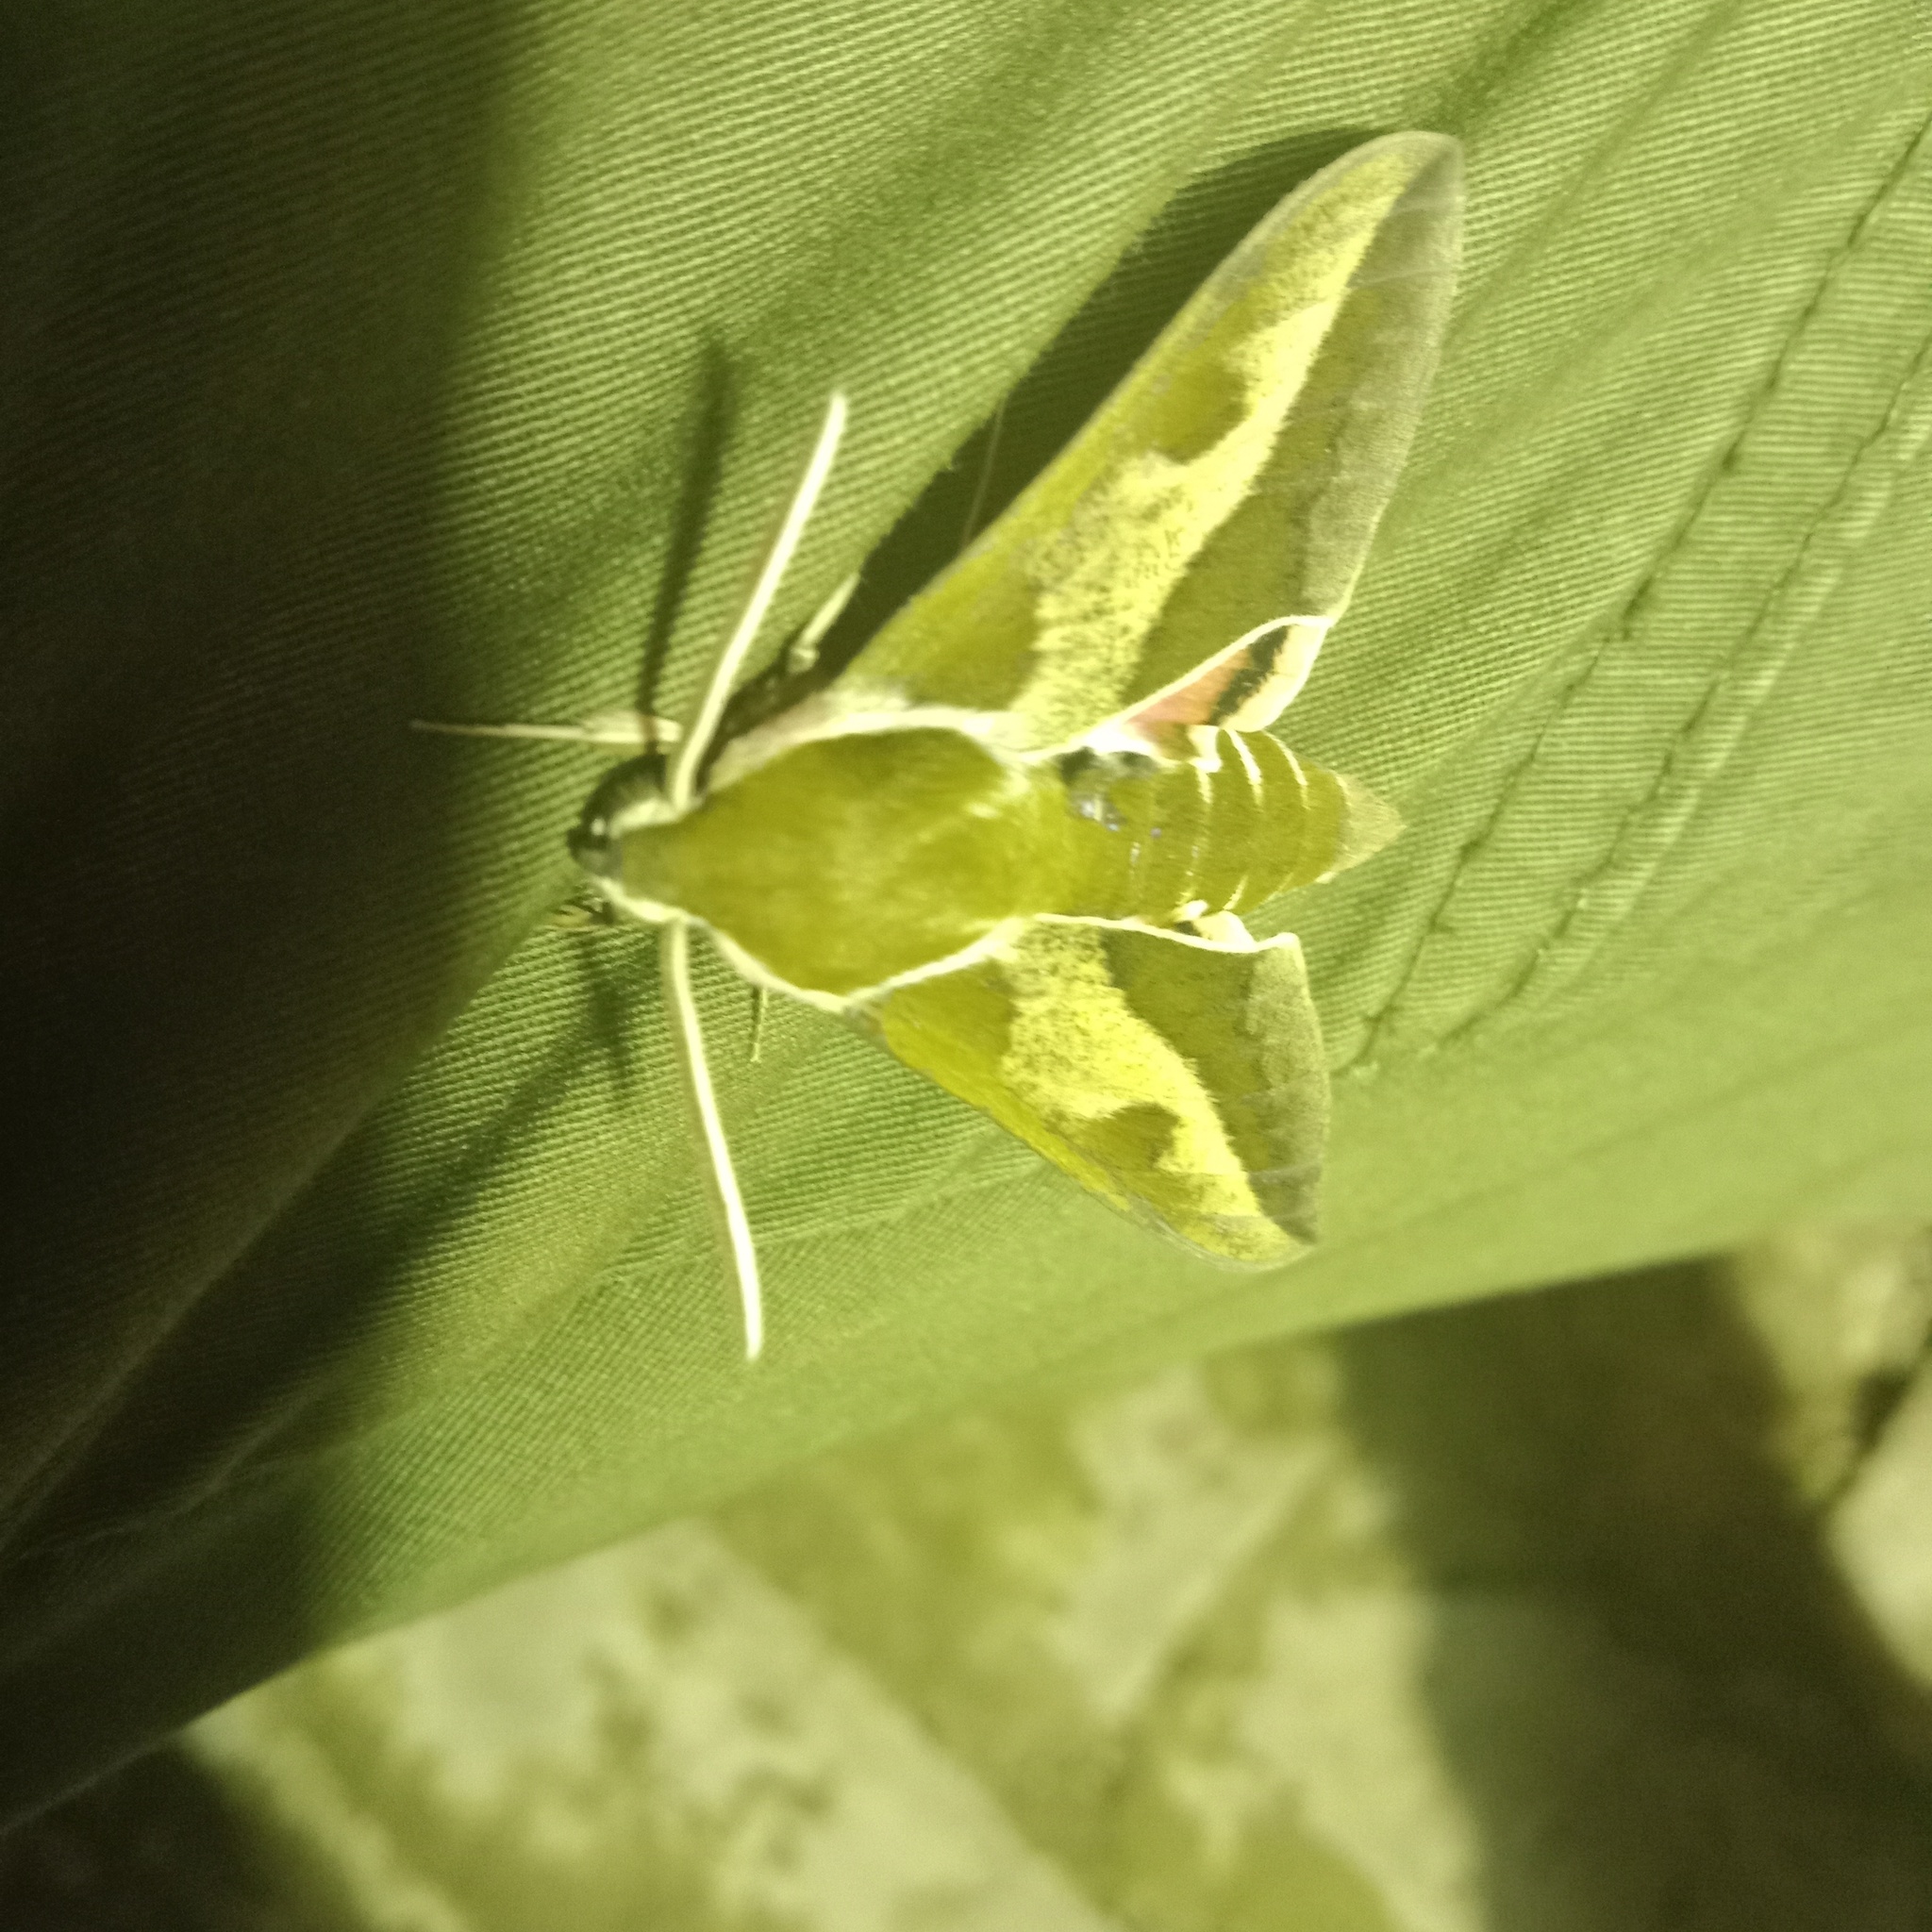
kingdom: Animalia
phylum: Arthropoda
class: Insecta
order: Lepidoptera
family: Sphingidae
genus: Hyles
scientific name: Hyles gallii
